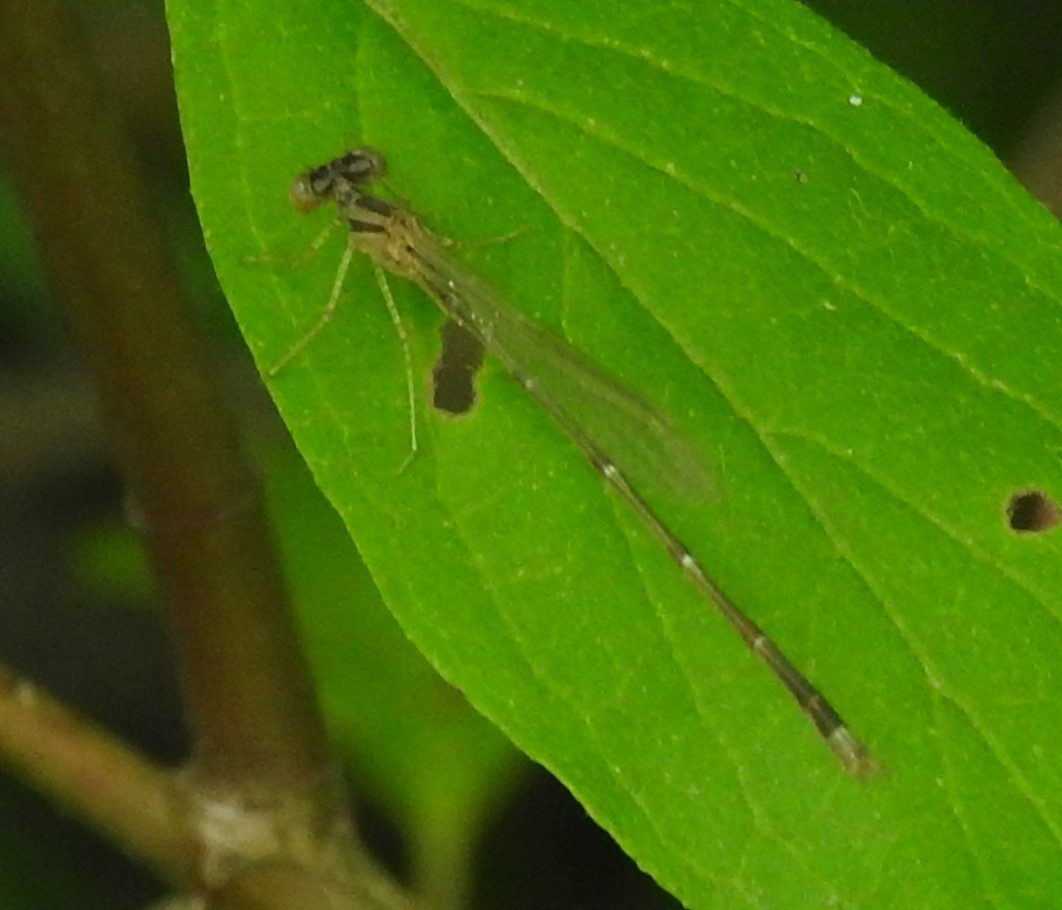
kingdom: Animalia
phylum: Arthropoda
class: Insecta
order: Odonata
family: Coenagrionidae
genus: Enallagma
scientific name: Enallagma signatum
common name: Orange bluet
